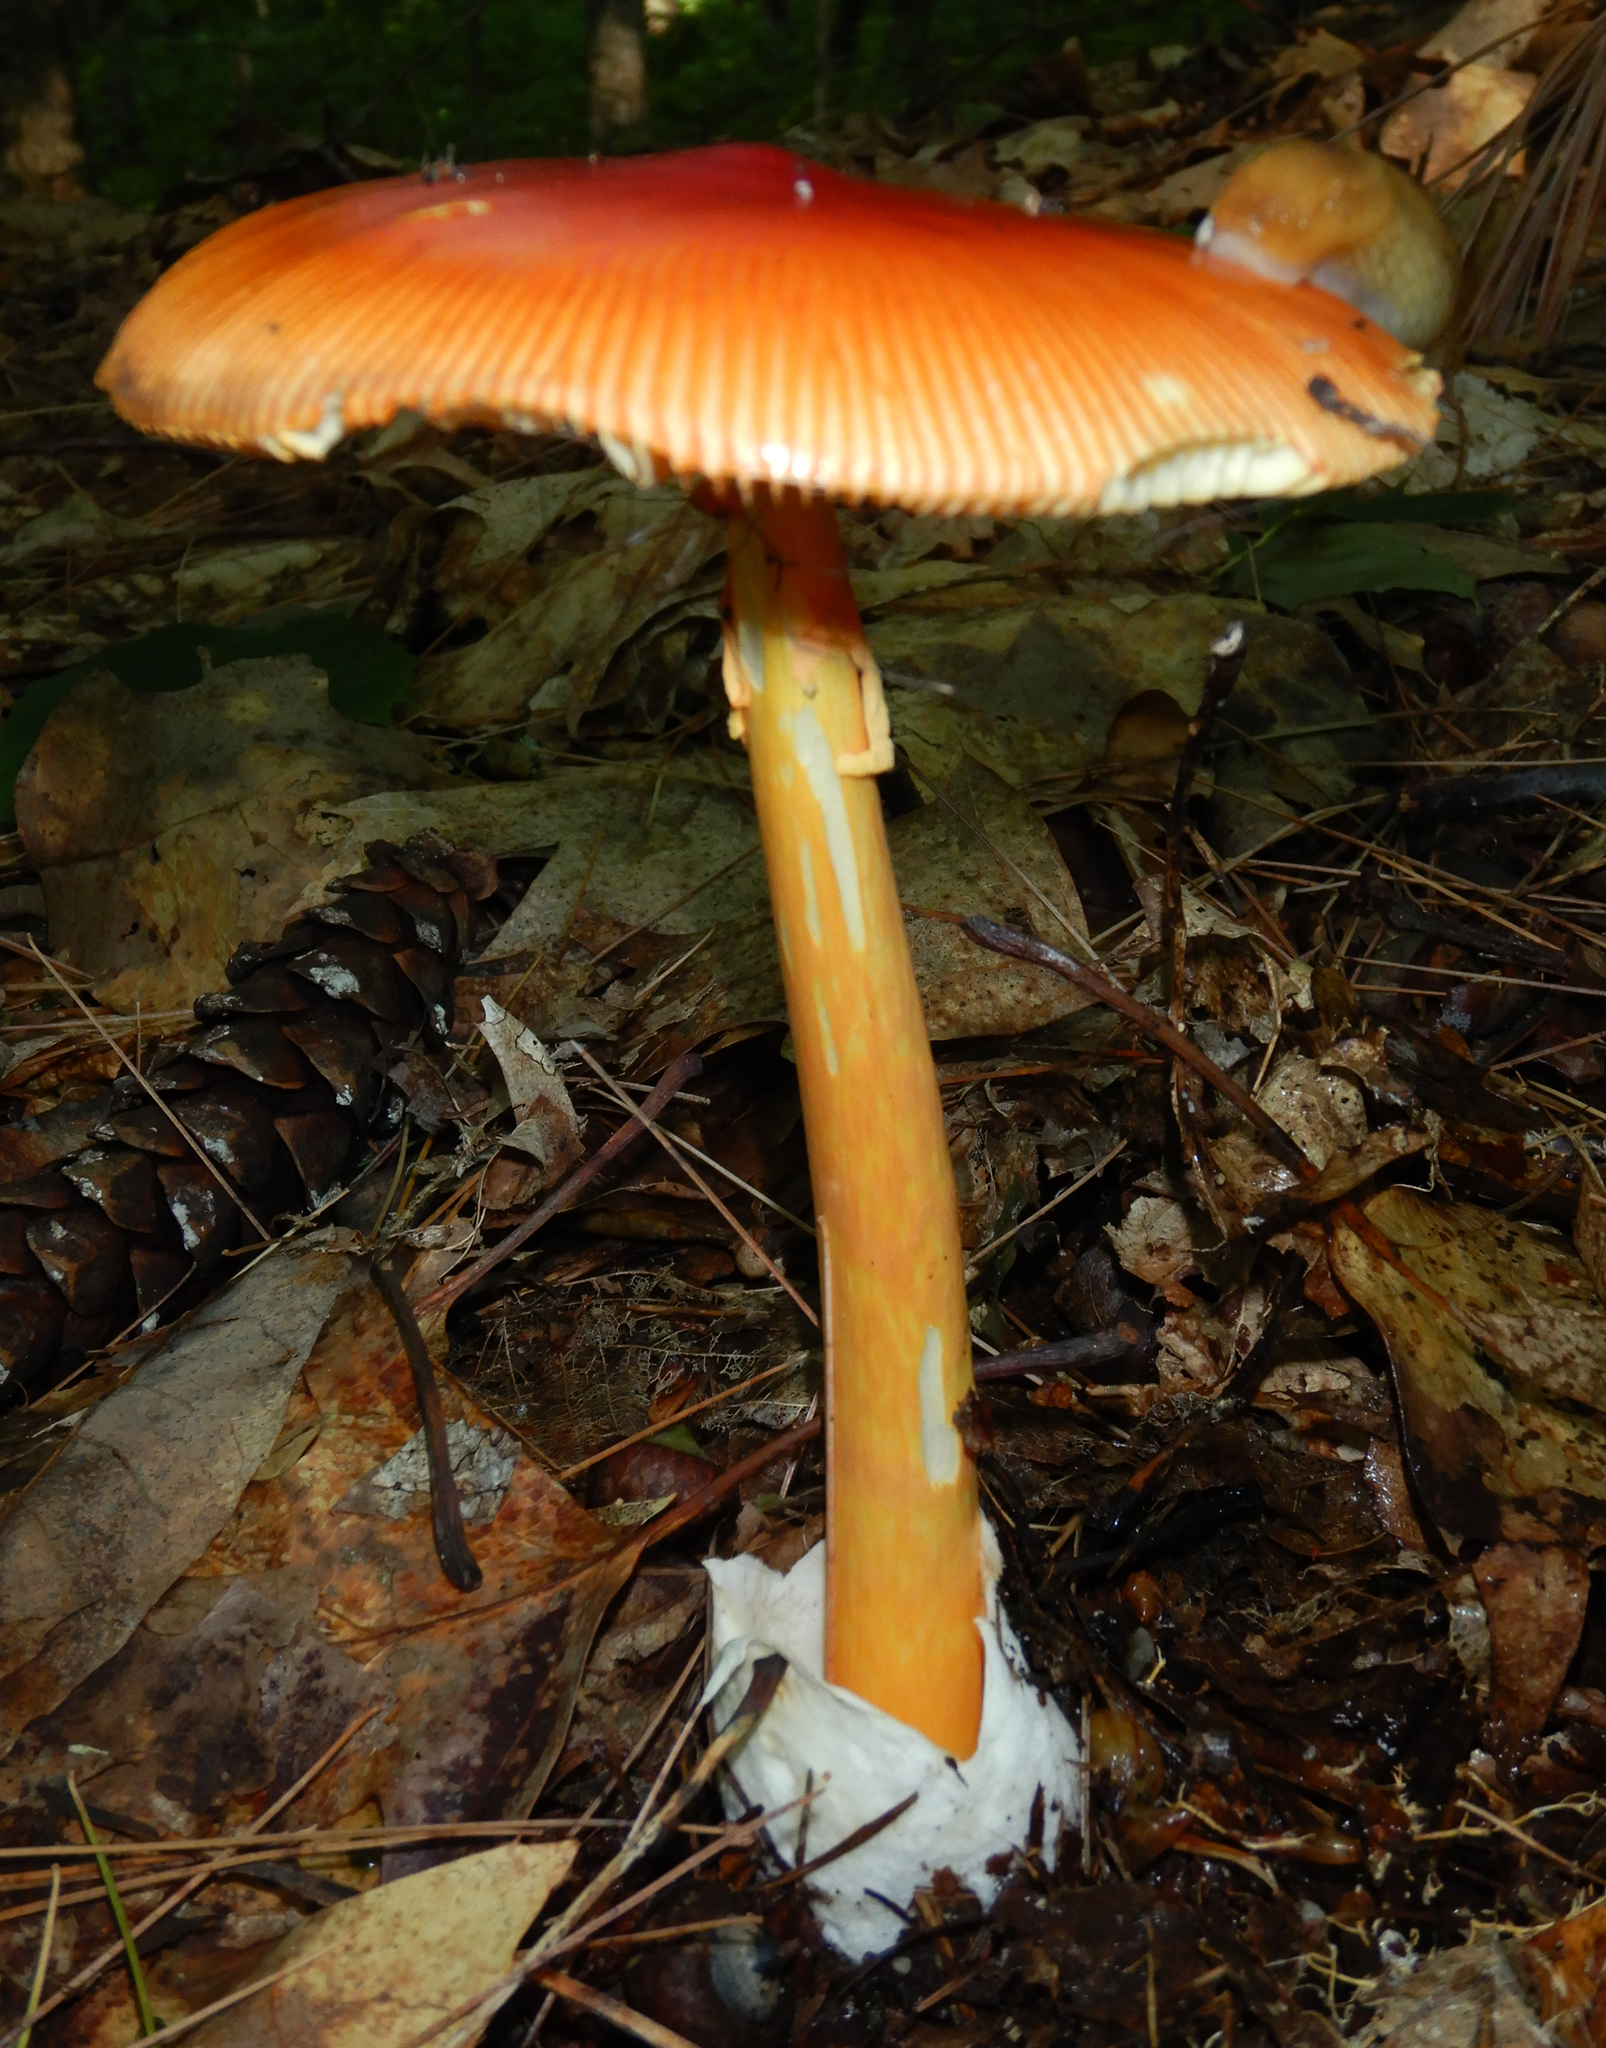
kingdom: Fungi
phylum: Basidiomycota
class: Agaricomycetes
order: Agaricales
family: Amanitaceae
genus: Amanita
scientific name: Amanita jacksonii
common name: Jackson's slender caesar
